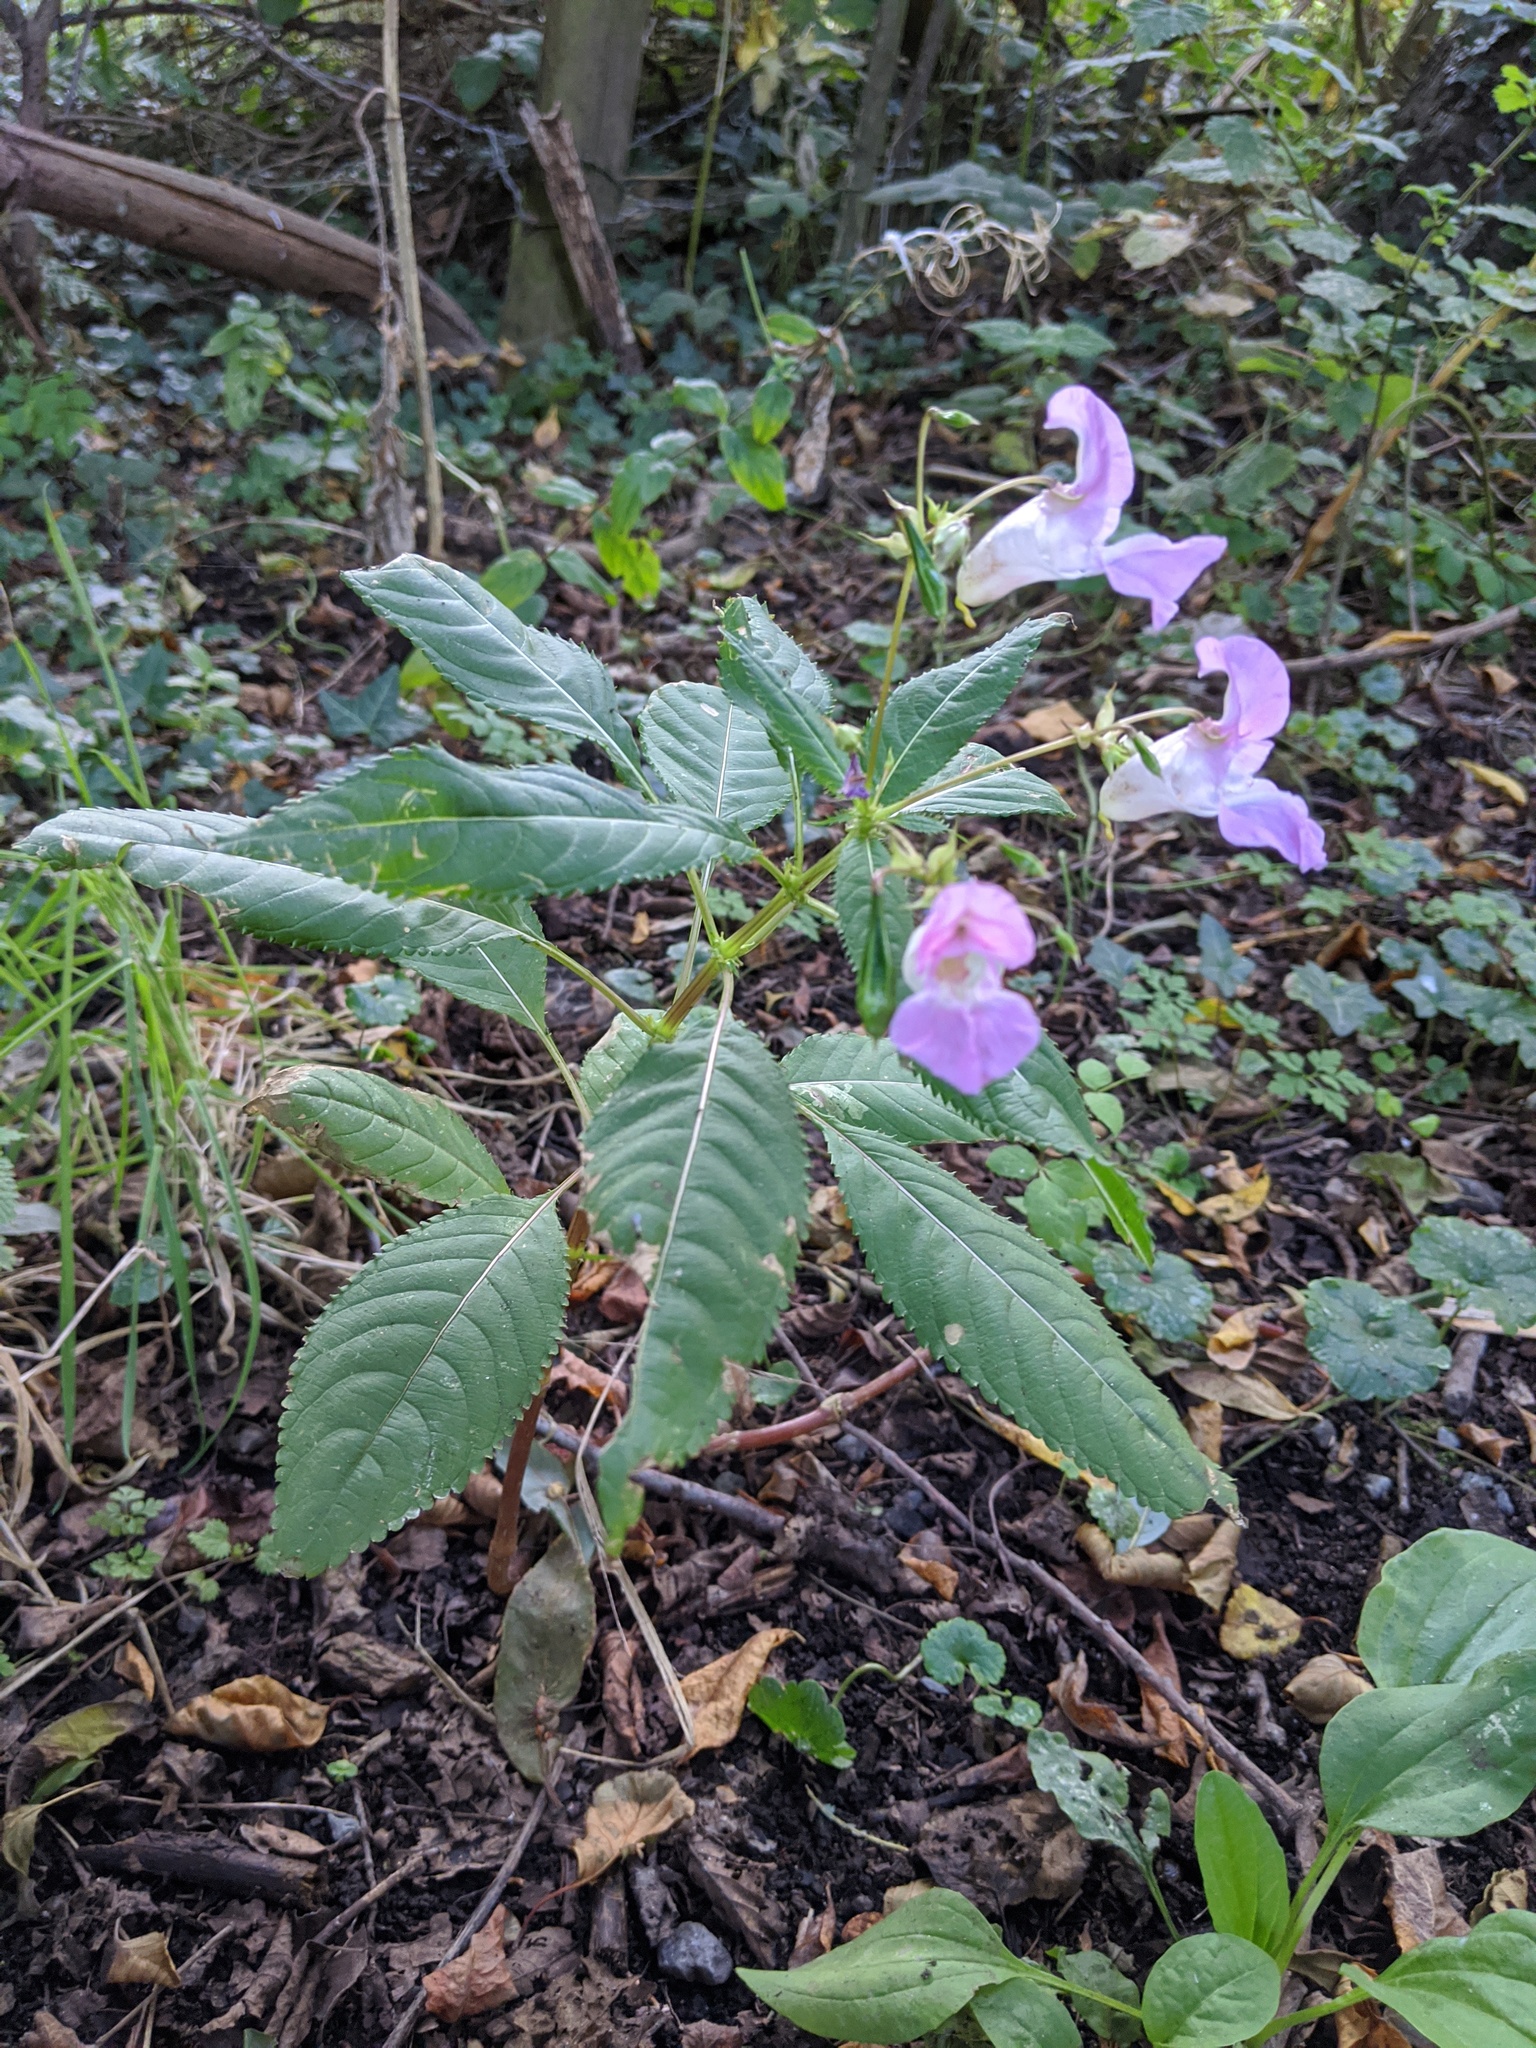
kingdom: Plantae
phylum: Tracheophyta
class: Magnoliopsida
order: Ericales
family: Balsaminaceae
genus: Impatiens
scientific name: Impatiens glandulifera
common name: Himalayan balsam
